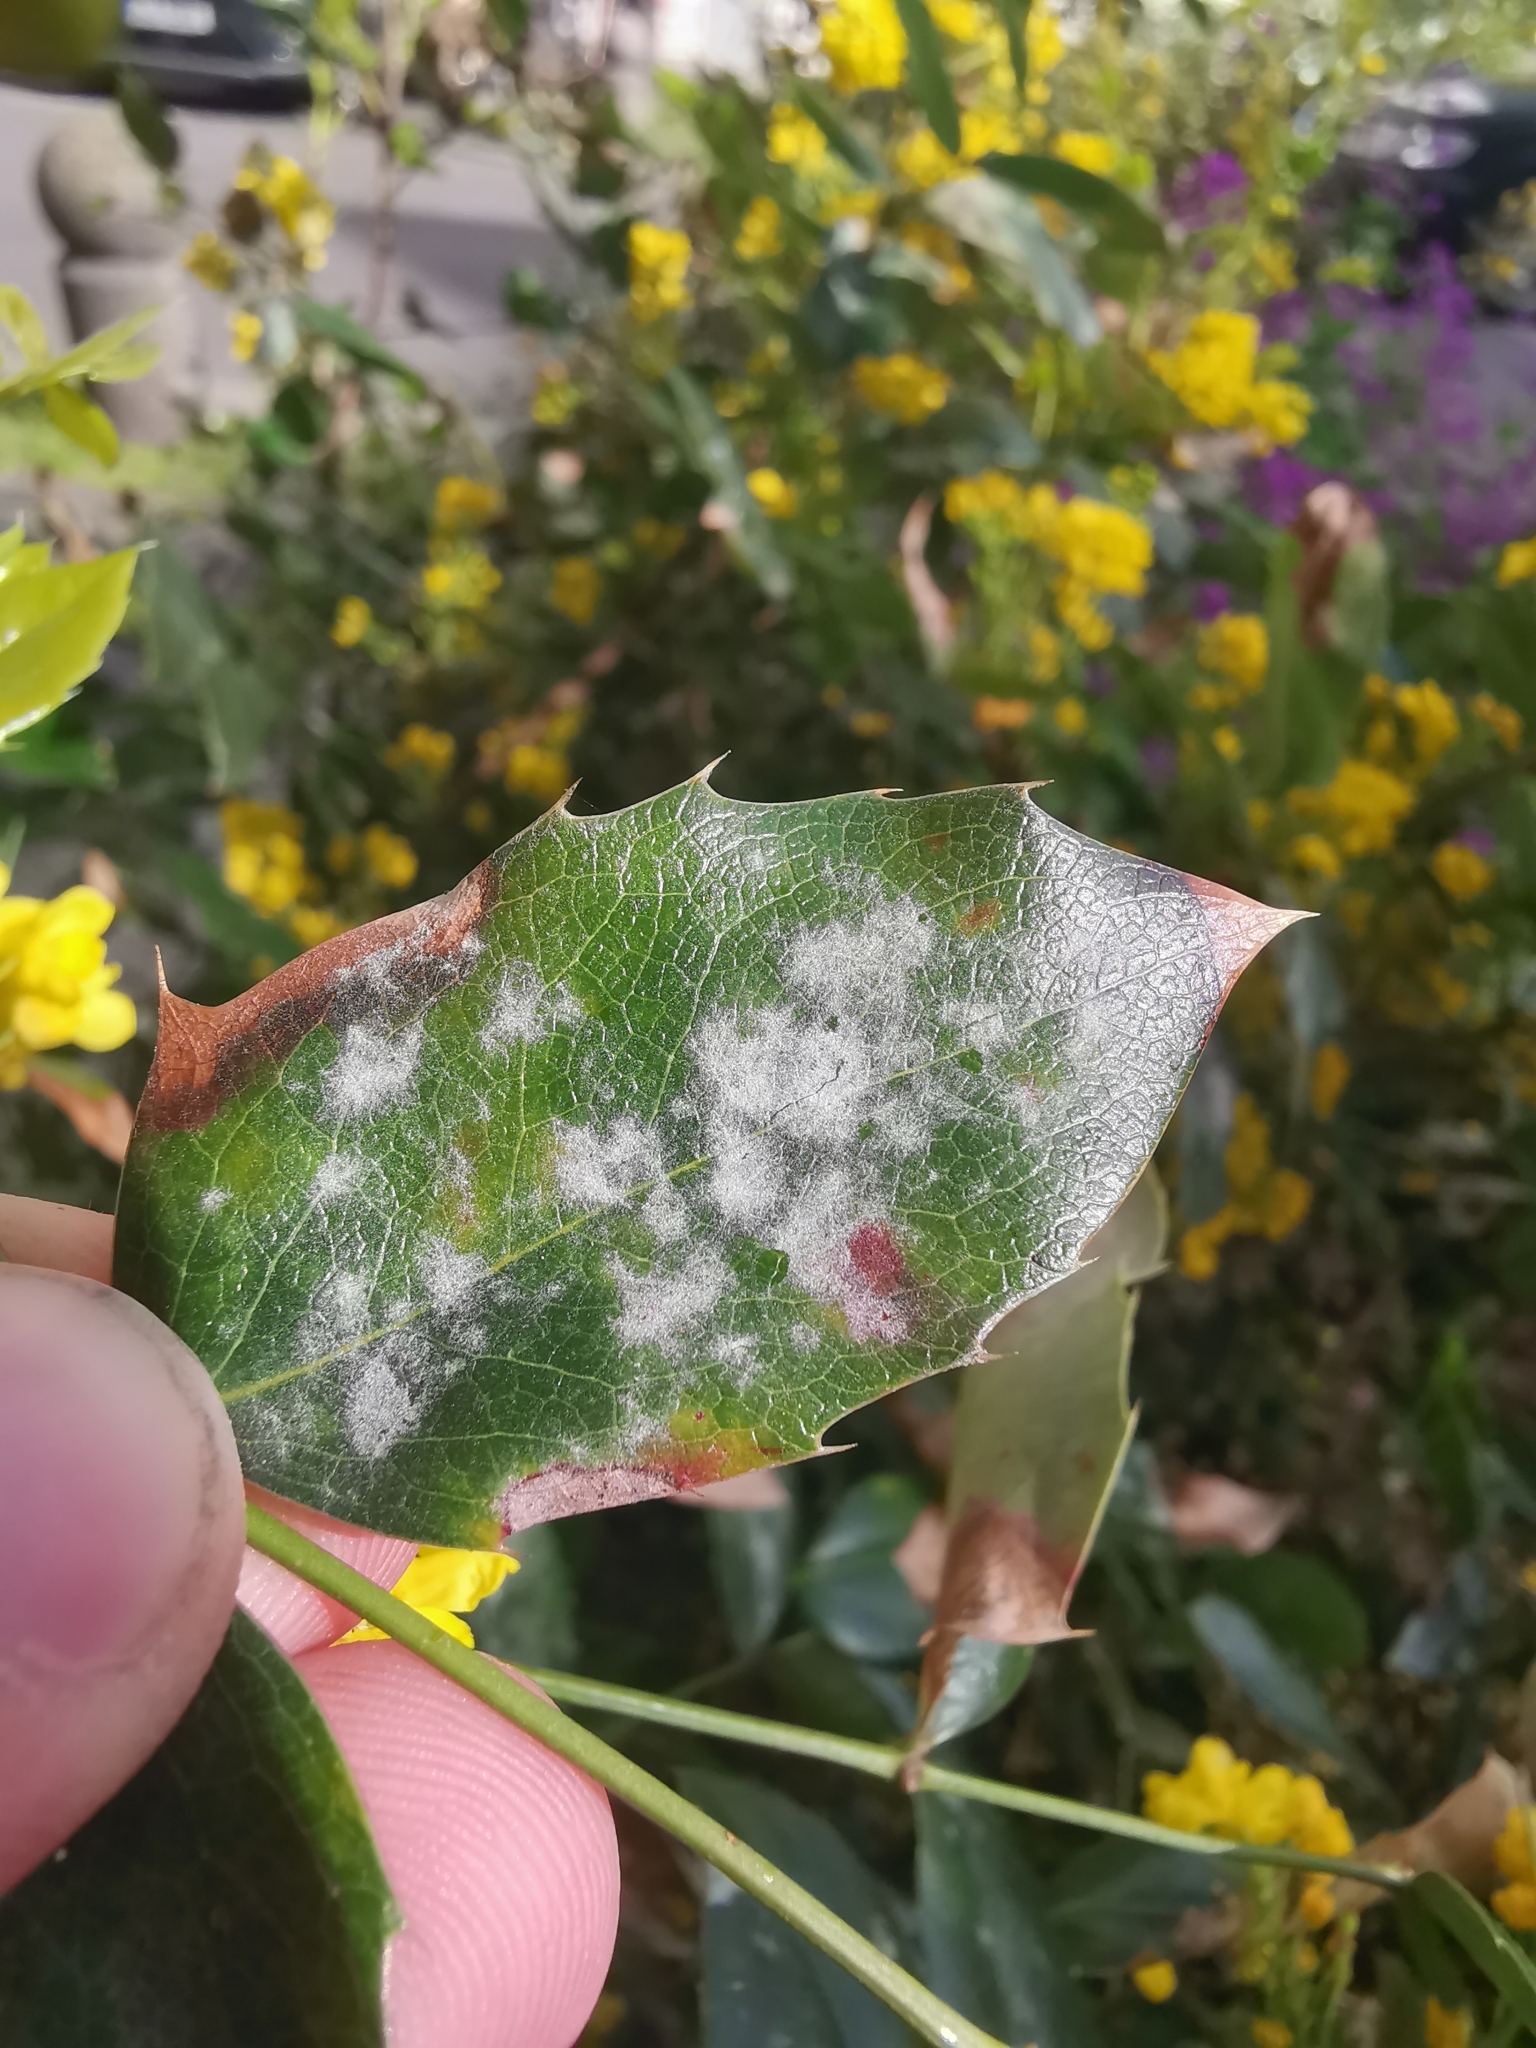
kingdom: Fungi
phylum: Ascomycota
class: Leotiomycetes
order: Helotiales
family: Erysiphaceae
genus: Erysiphe
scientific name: Erysiphe berberidis
